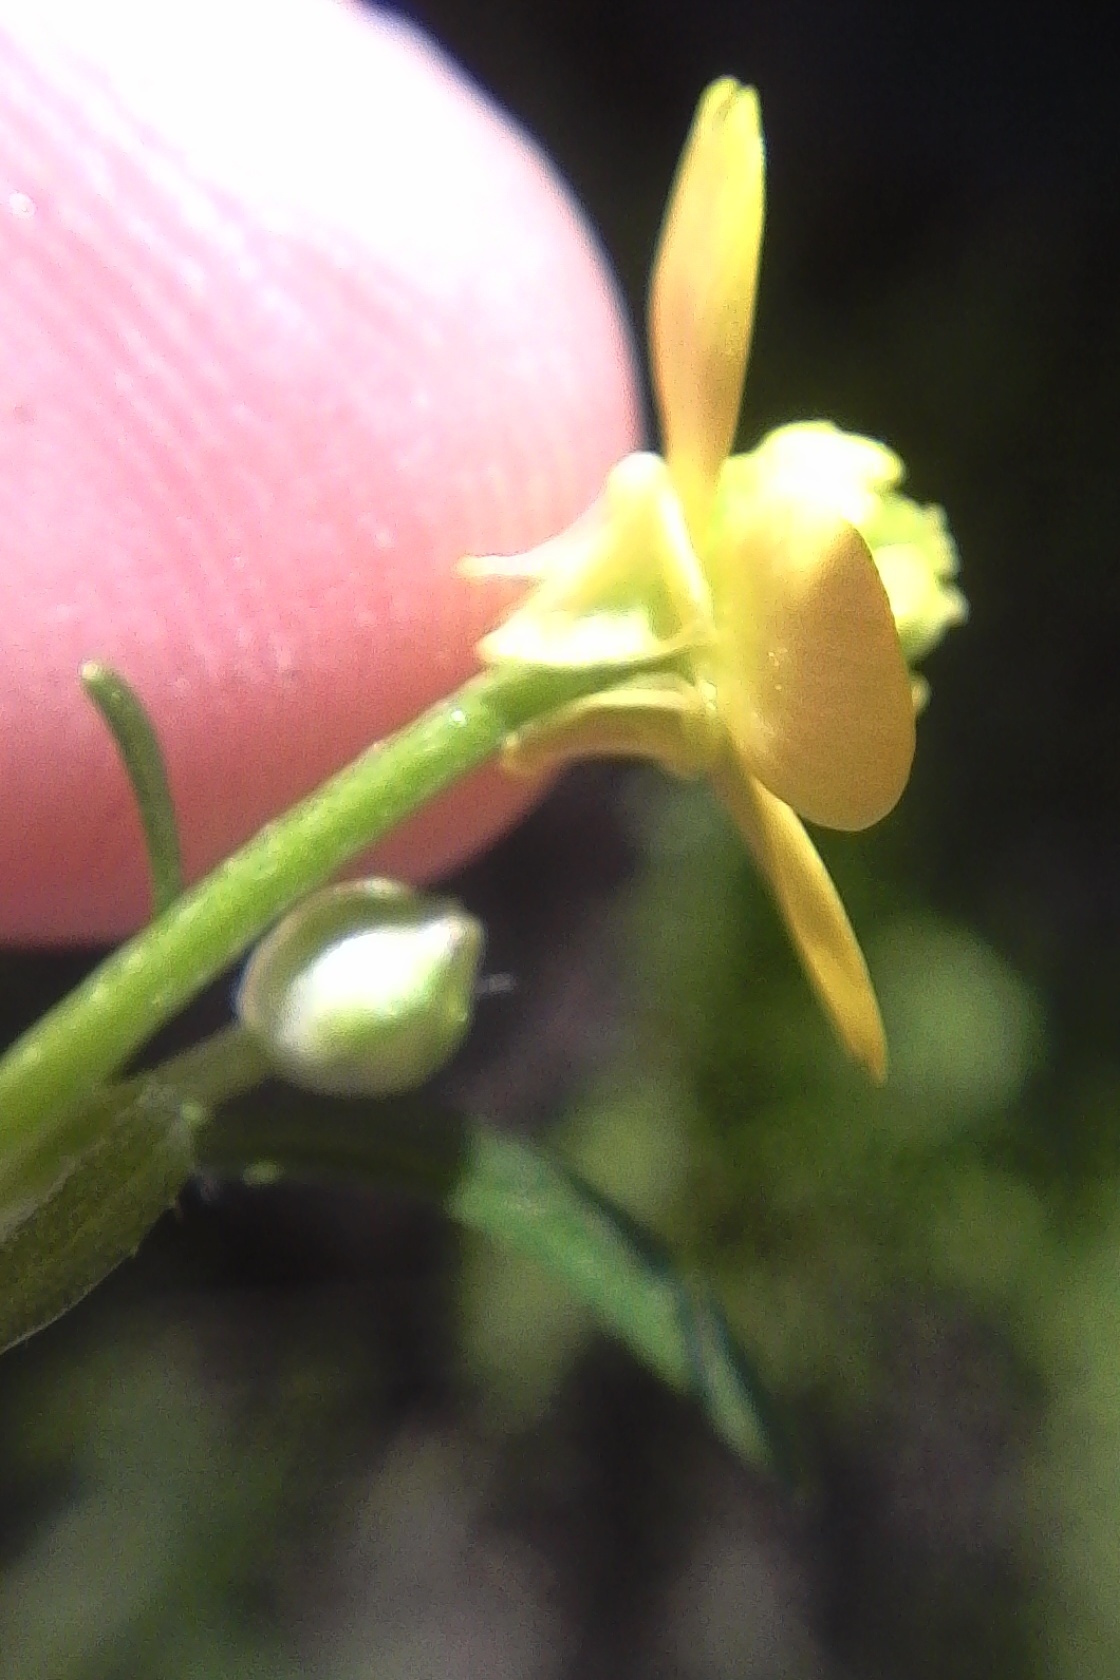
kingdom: Plantae
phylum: Tracheophyta
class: Magnoliopsida
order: Ranunculales
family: Ranunculaceae
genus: Ranunculus
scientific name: Ranunculus trilobus
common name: Threelobe buttercup
